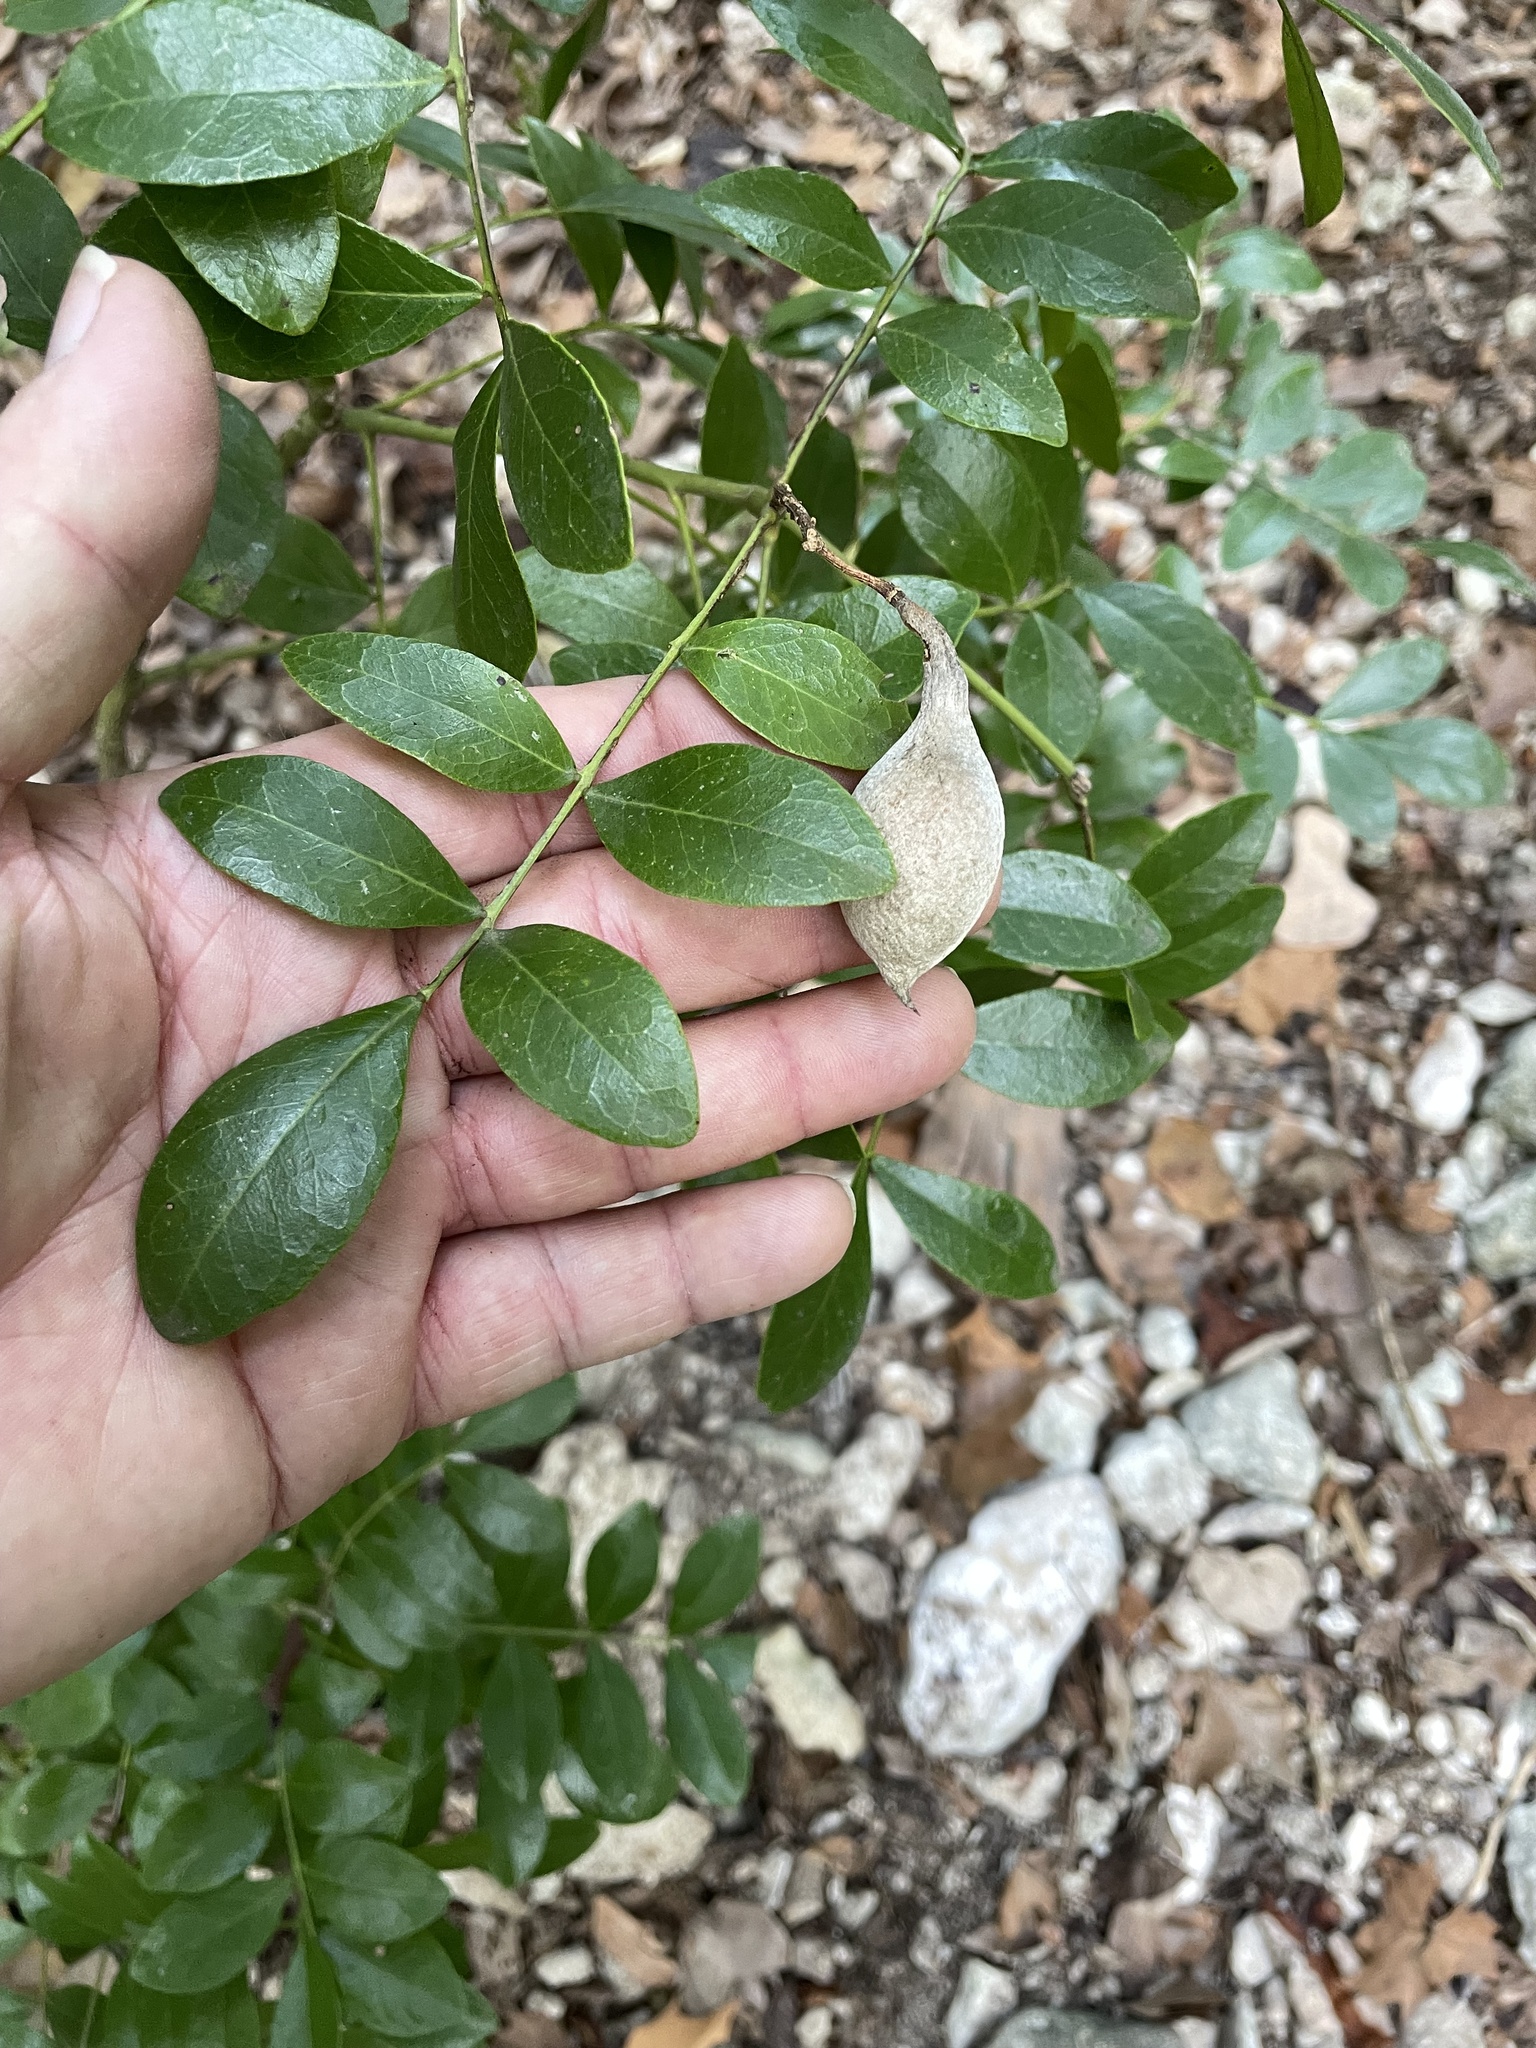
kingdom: Plantae
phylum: Tracheophyta
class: Magnoliopsida
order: Fabales
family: Fabaceae
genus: Dermatophyllum
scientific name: Dermatophyllum secundiflorum
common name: Texas-mountain-laurel
